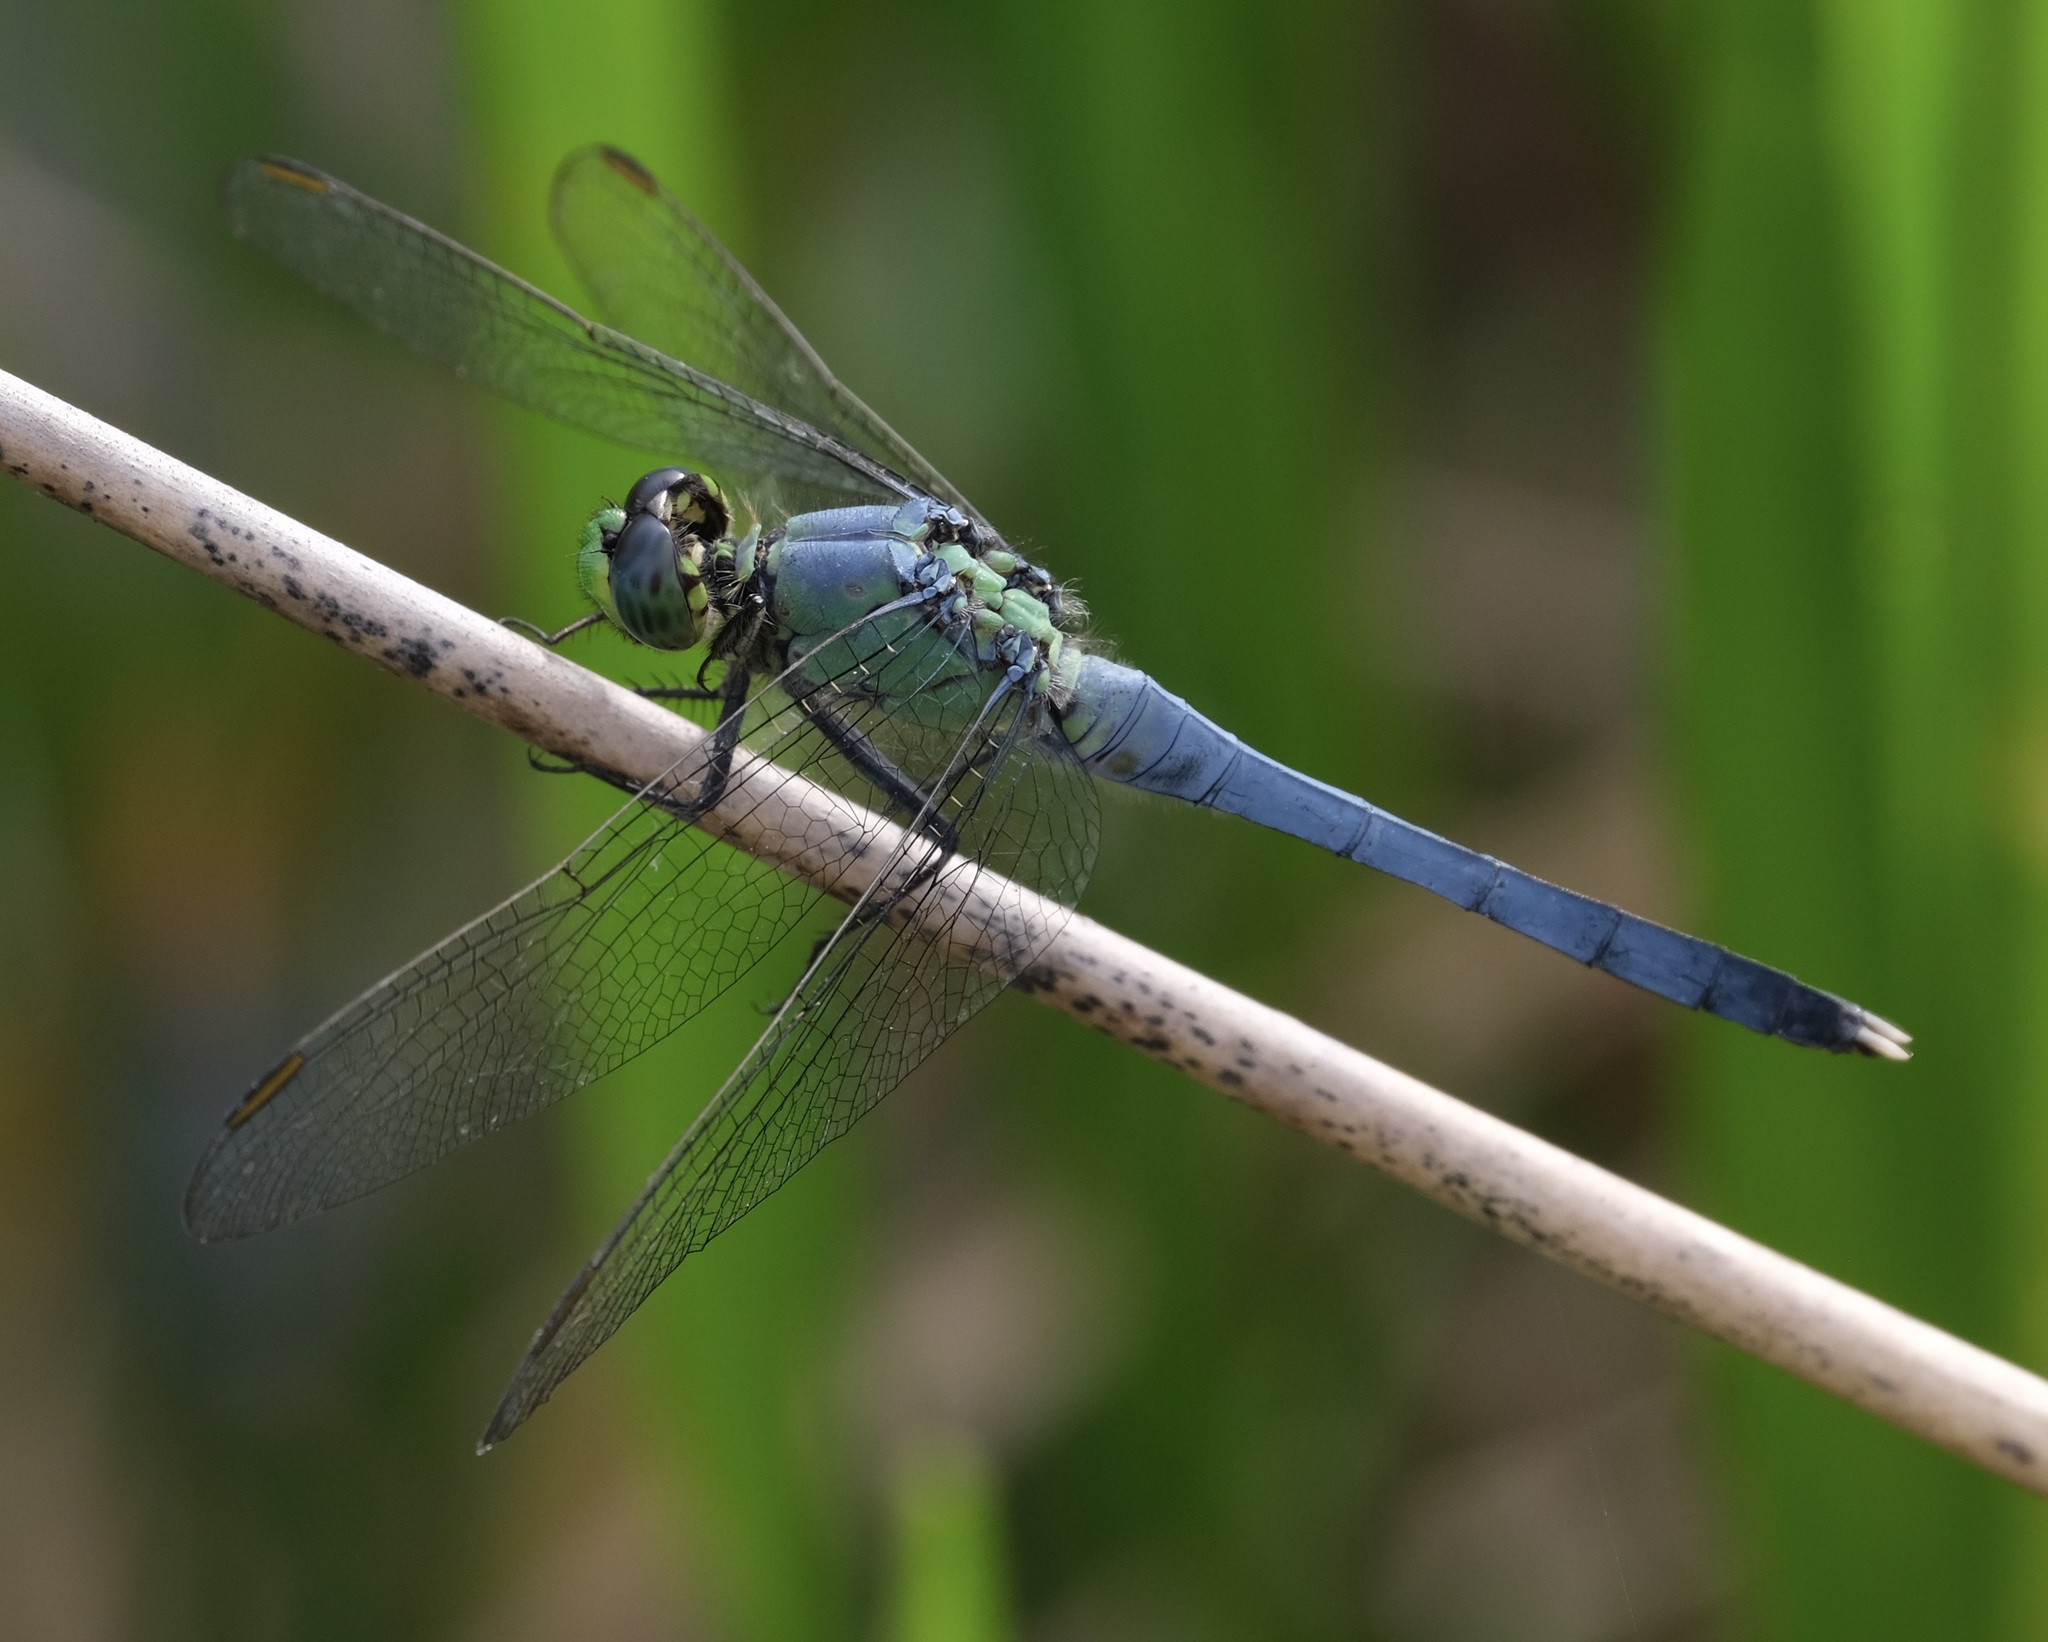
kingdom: Animalia
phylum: Arthropoda
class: Insecta
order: Odonata
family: Libellulidae
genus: Erythemis
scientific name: Erythemis simplicicollis
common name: Eastern pondhawk
